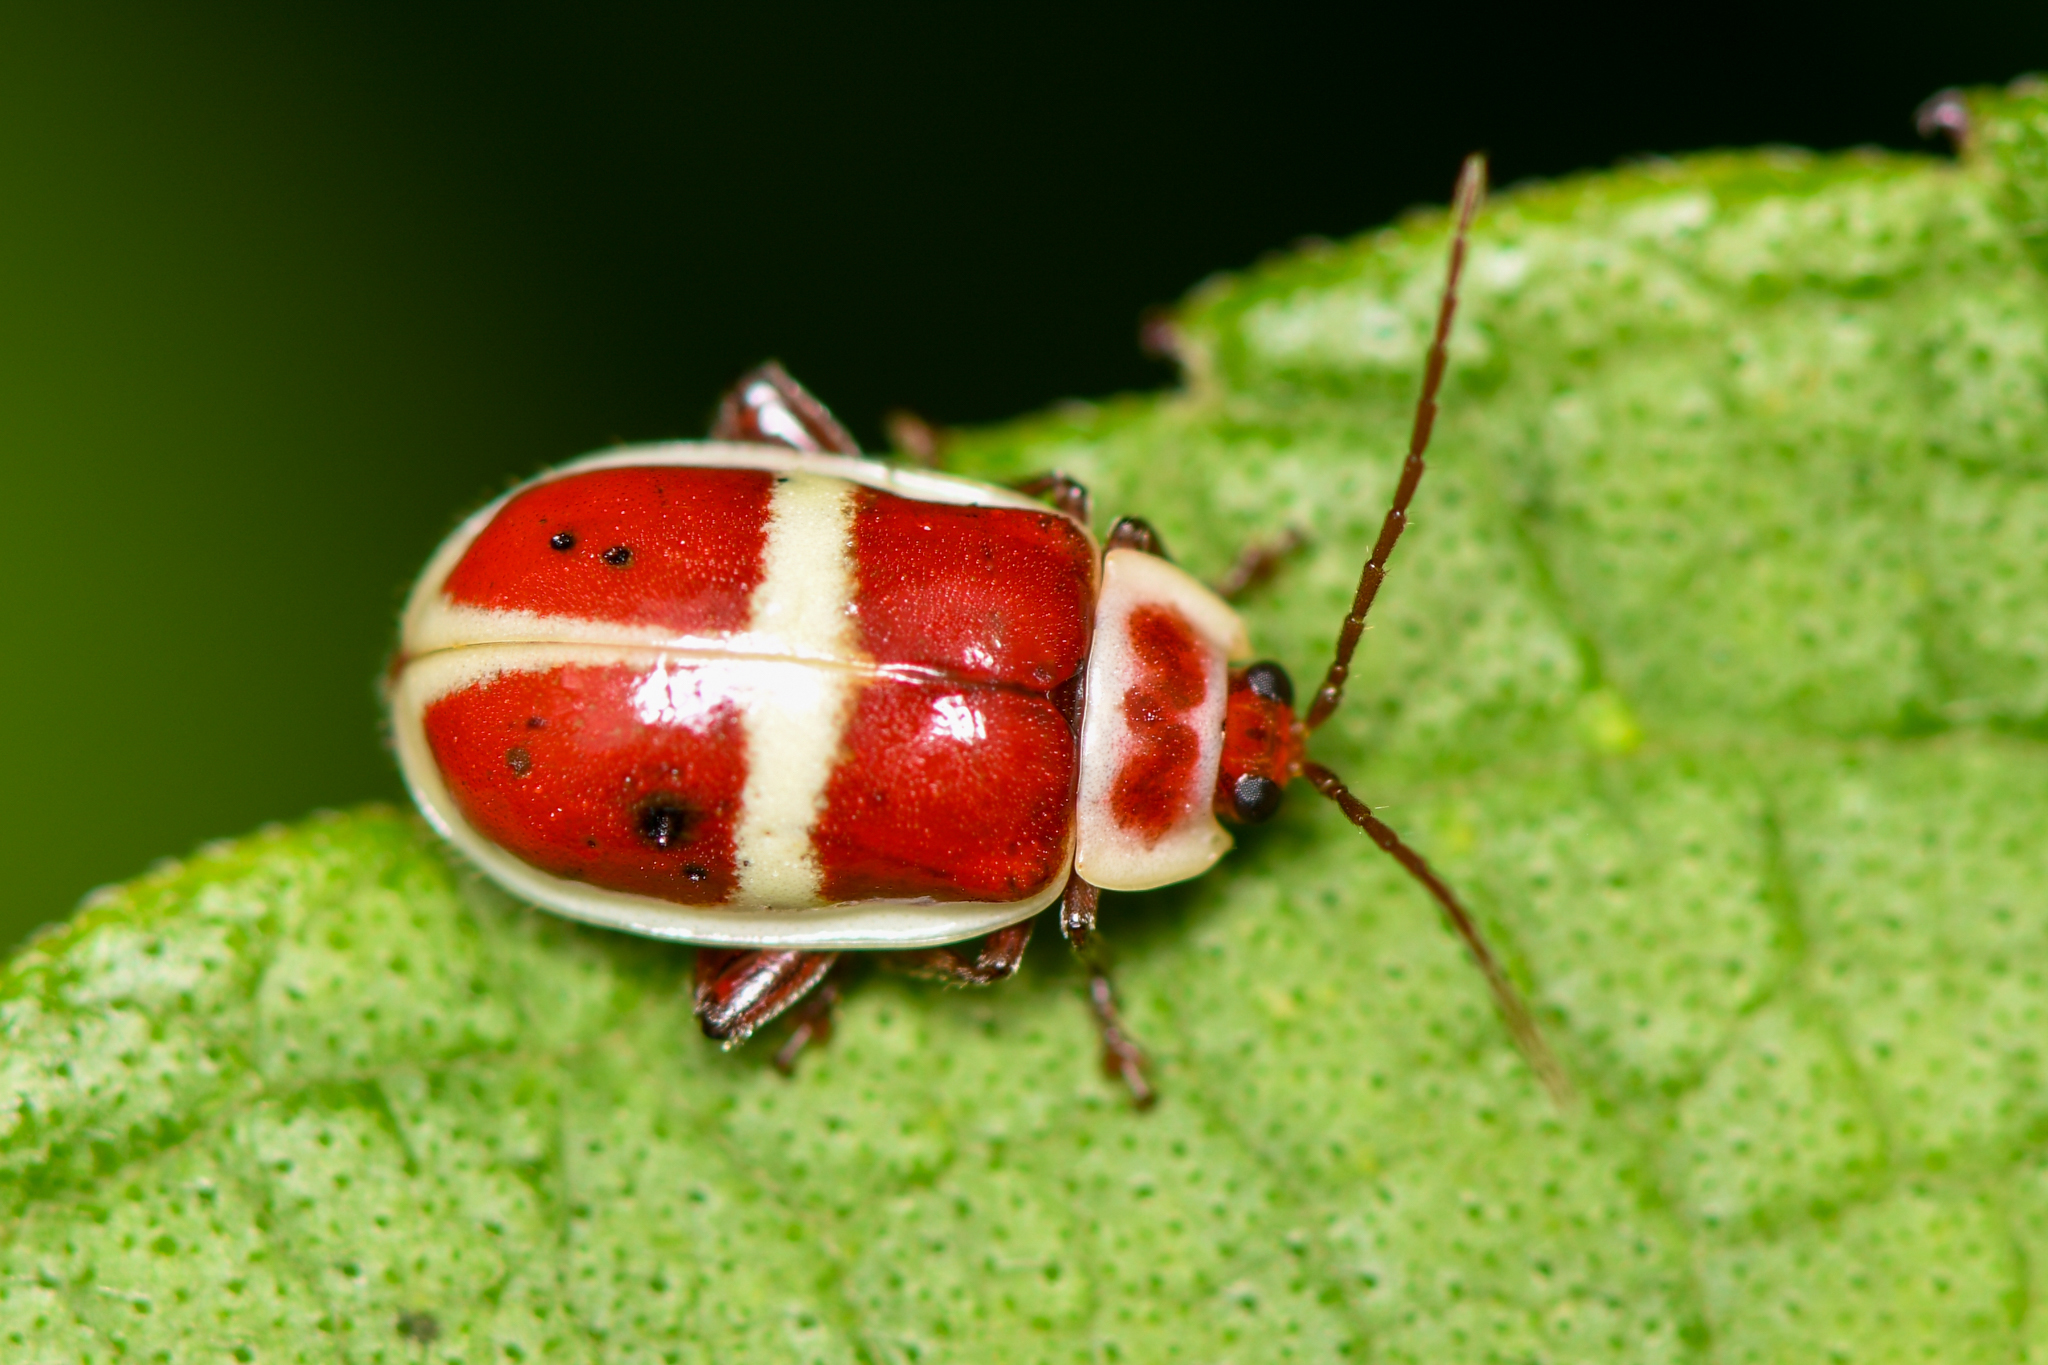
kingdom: Animalia
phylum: Arthropoda
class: Insecta
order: Coleoptera
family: Chrysomelidae
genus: Asphaera
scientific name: Asphaera discicollis
